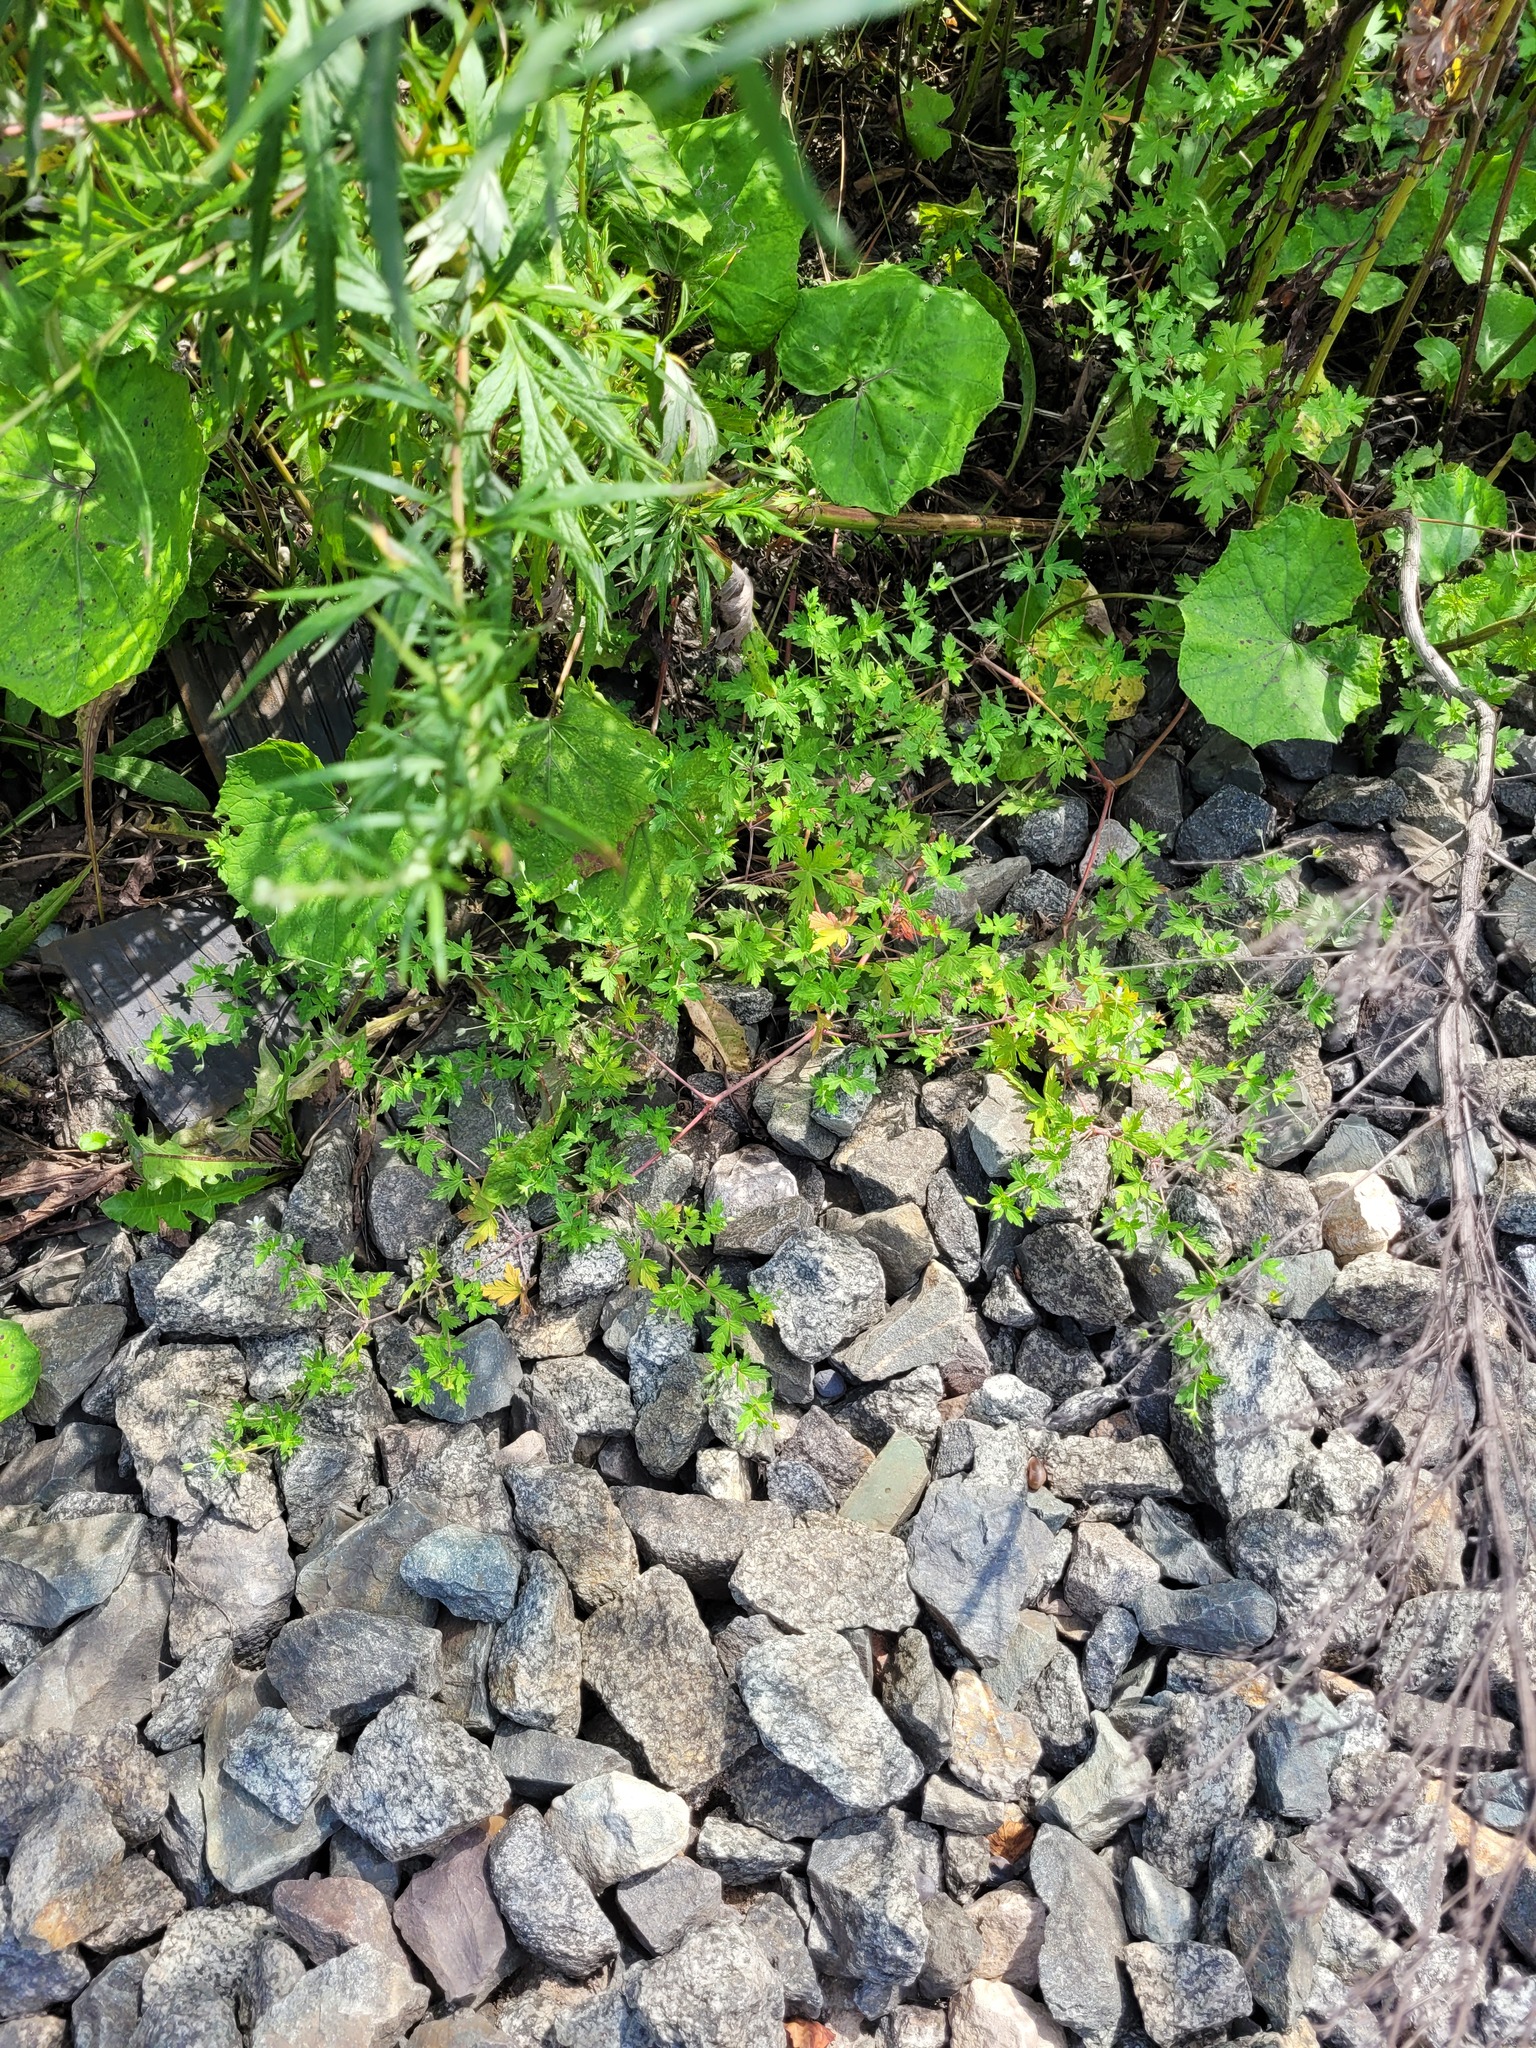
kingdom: Plantae
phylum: Tracheophyta
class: Magnoliopsida
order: Geraniales
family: Geraniaceae
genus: Geranium
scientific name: Geranium sibiricum
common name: Siberian crane's-bill
